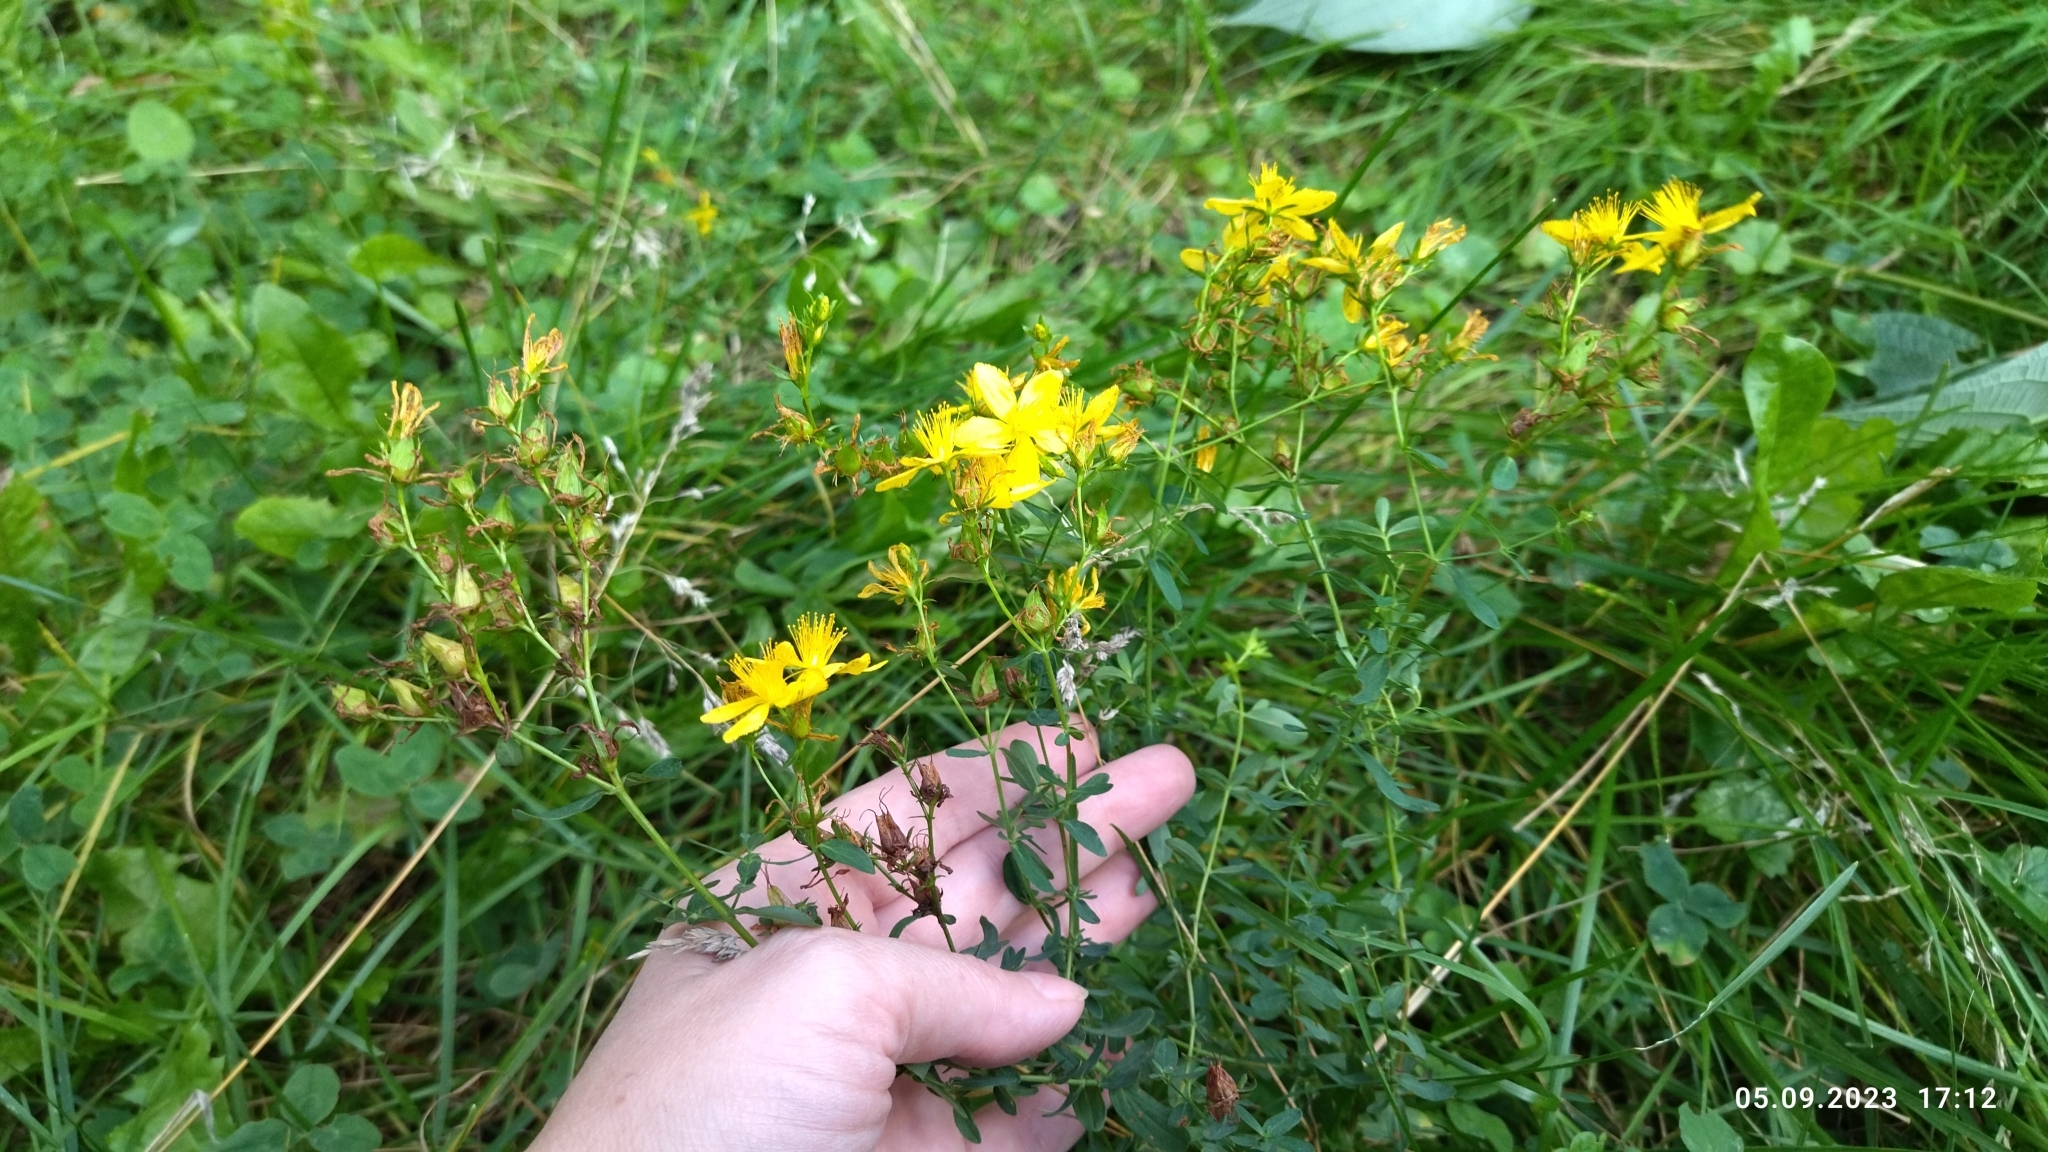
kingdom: Plantae
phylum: Tracheophyta
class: Magnoliopsida
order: Malpighiales
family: Hypericaceae
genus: Hypericum
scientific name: Hypericum perforatum
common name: Common st. johnswort
